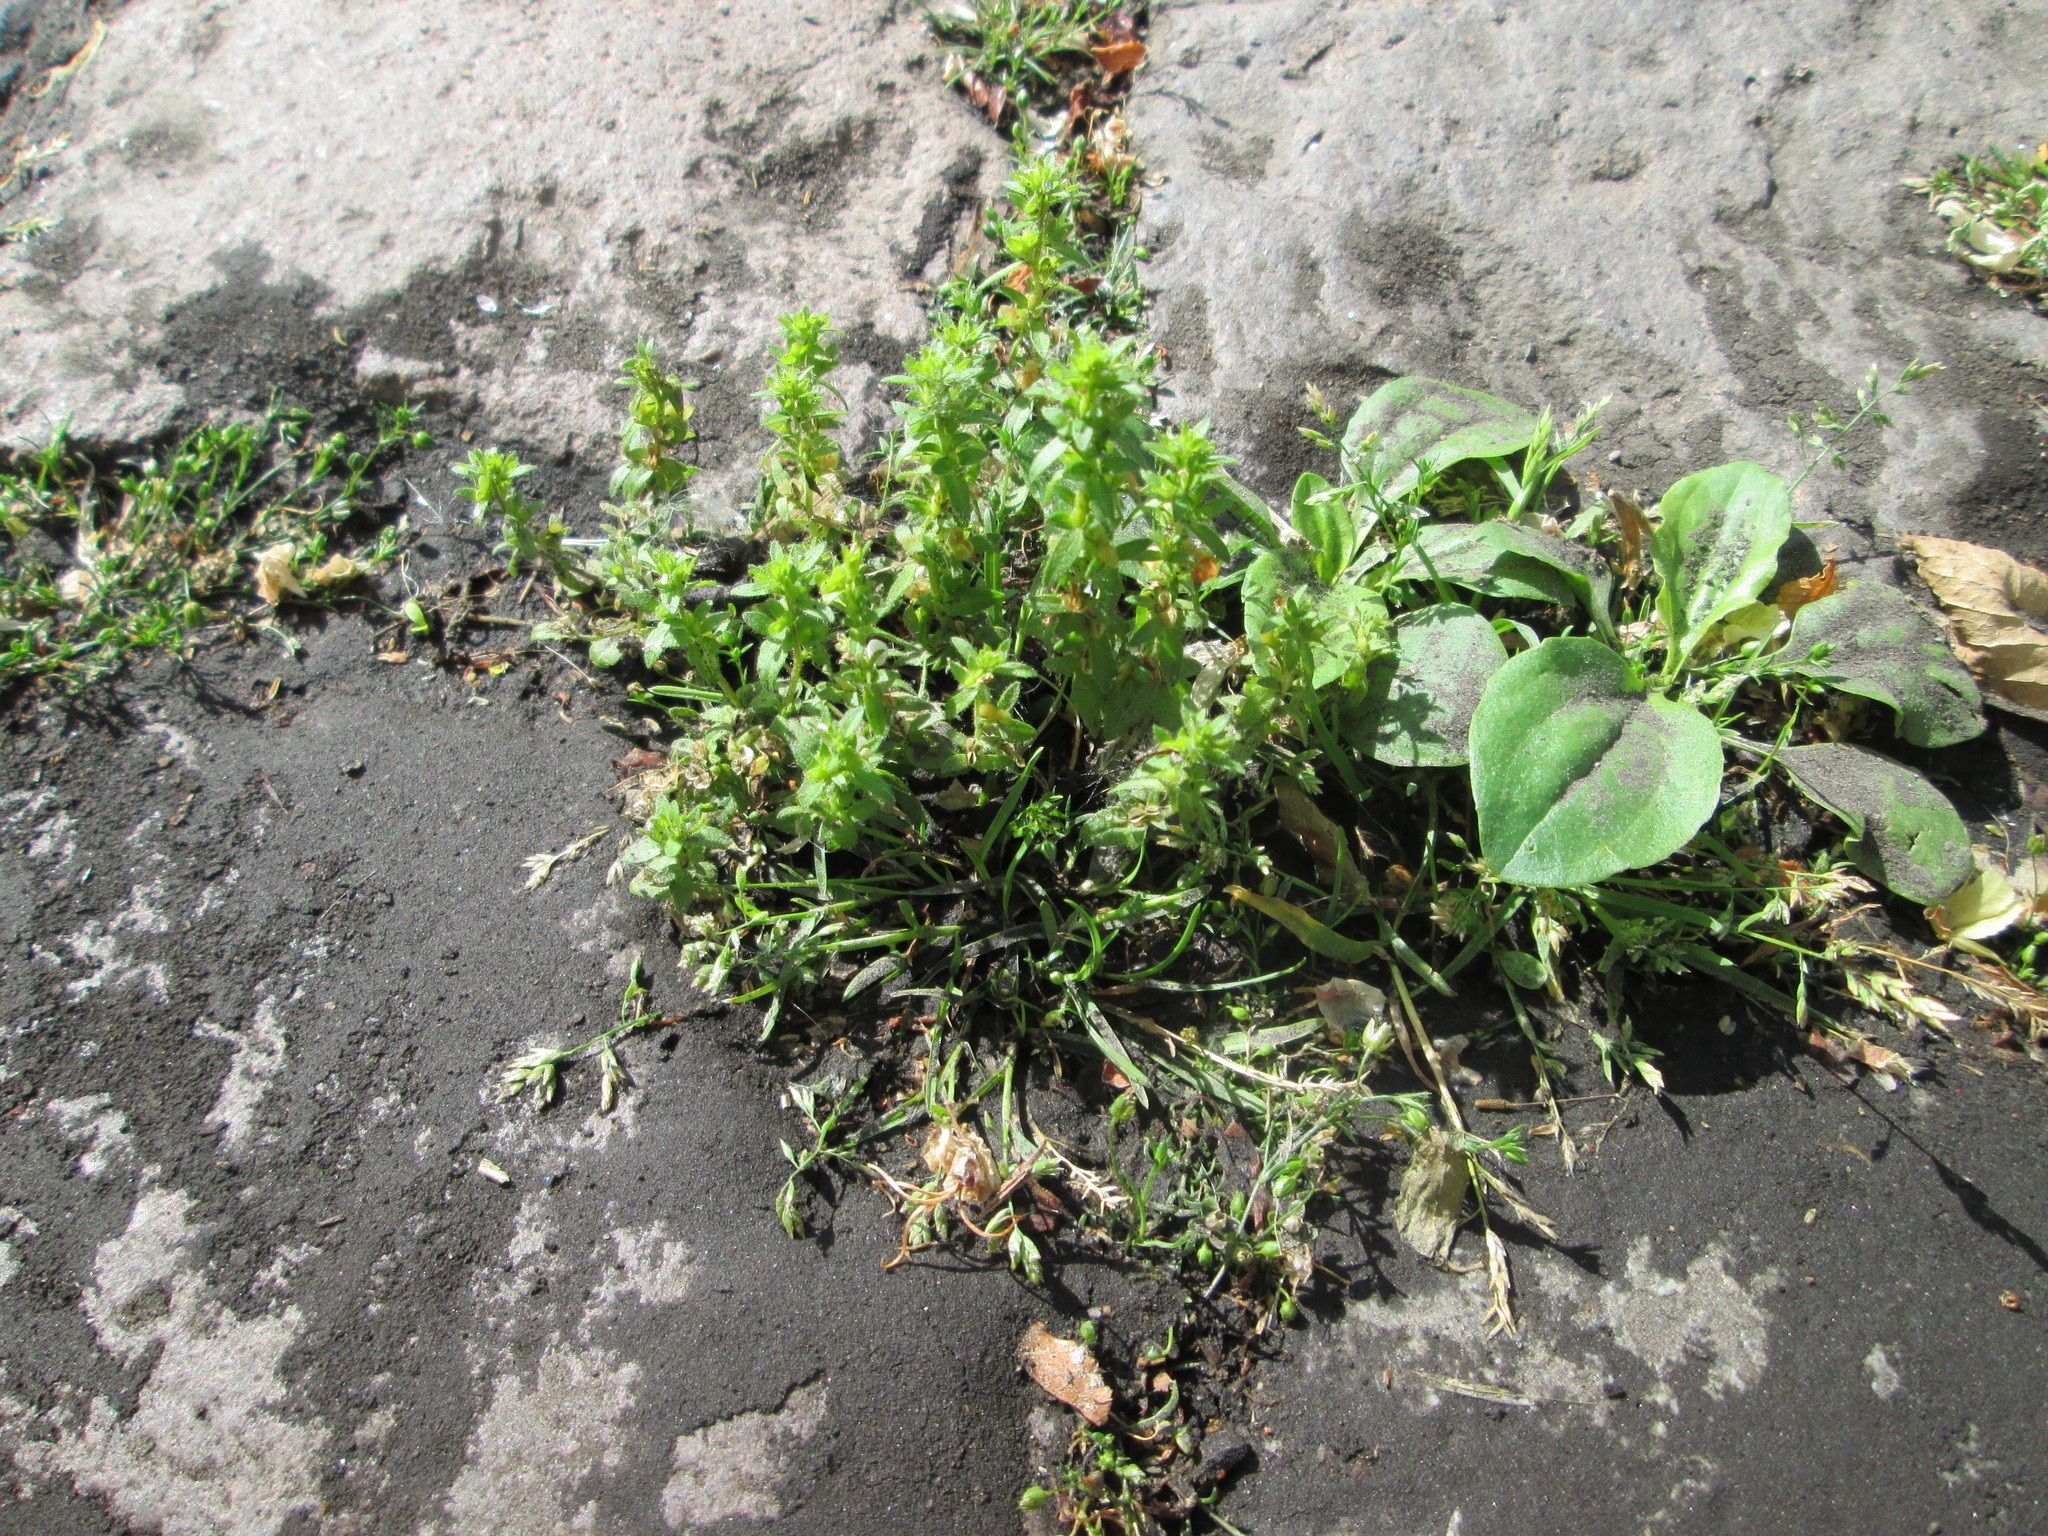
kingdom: Plantae
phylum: Tracheophyta
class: Magnoliopsida
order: Lamiales
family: Plantaginaceae
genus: Veronica
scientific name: Veronica arvensis
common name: Corn speedwell
